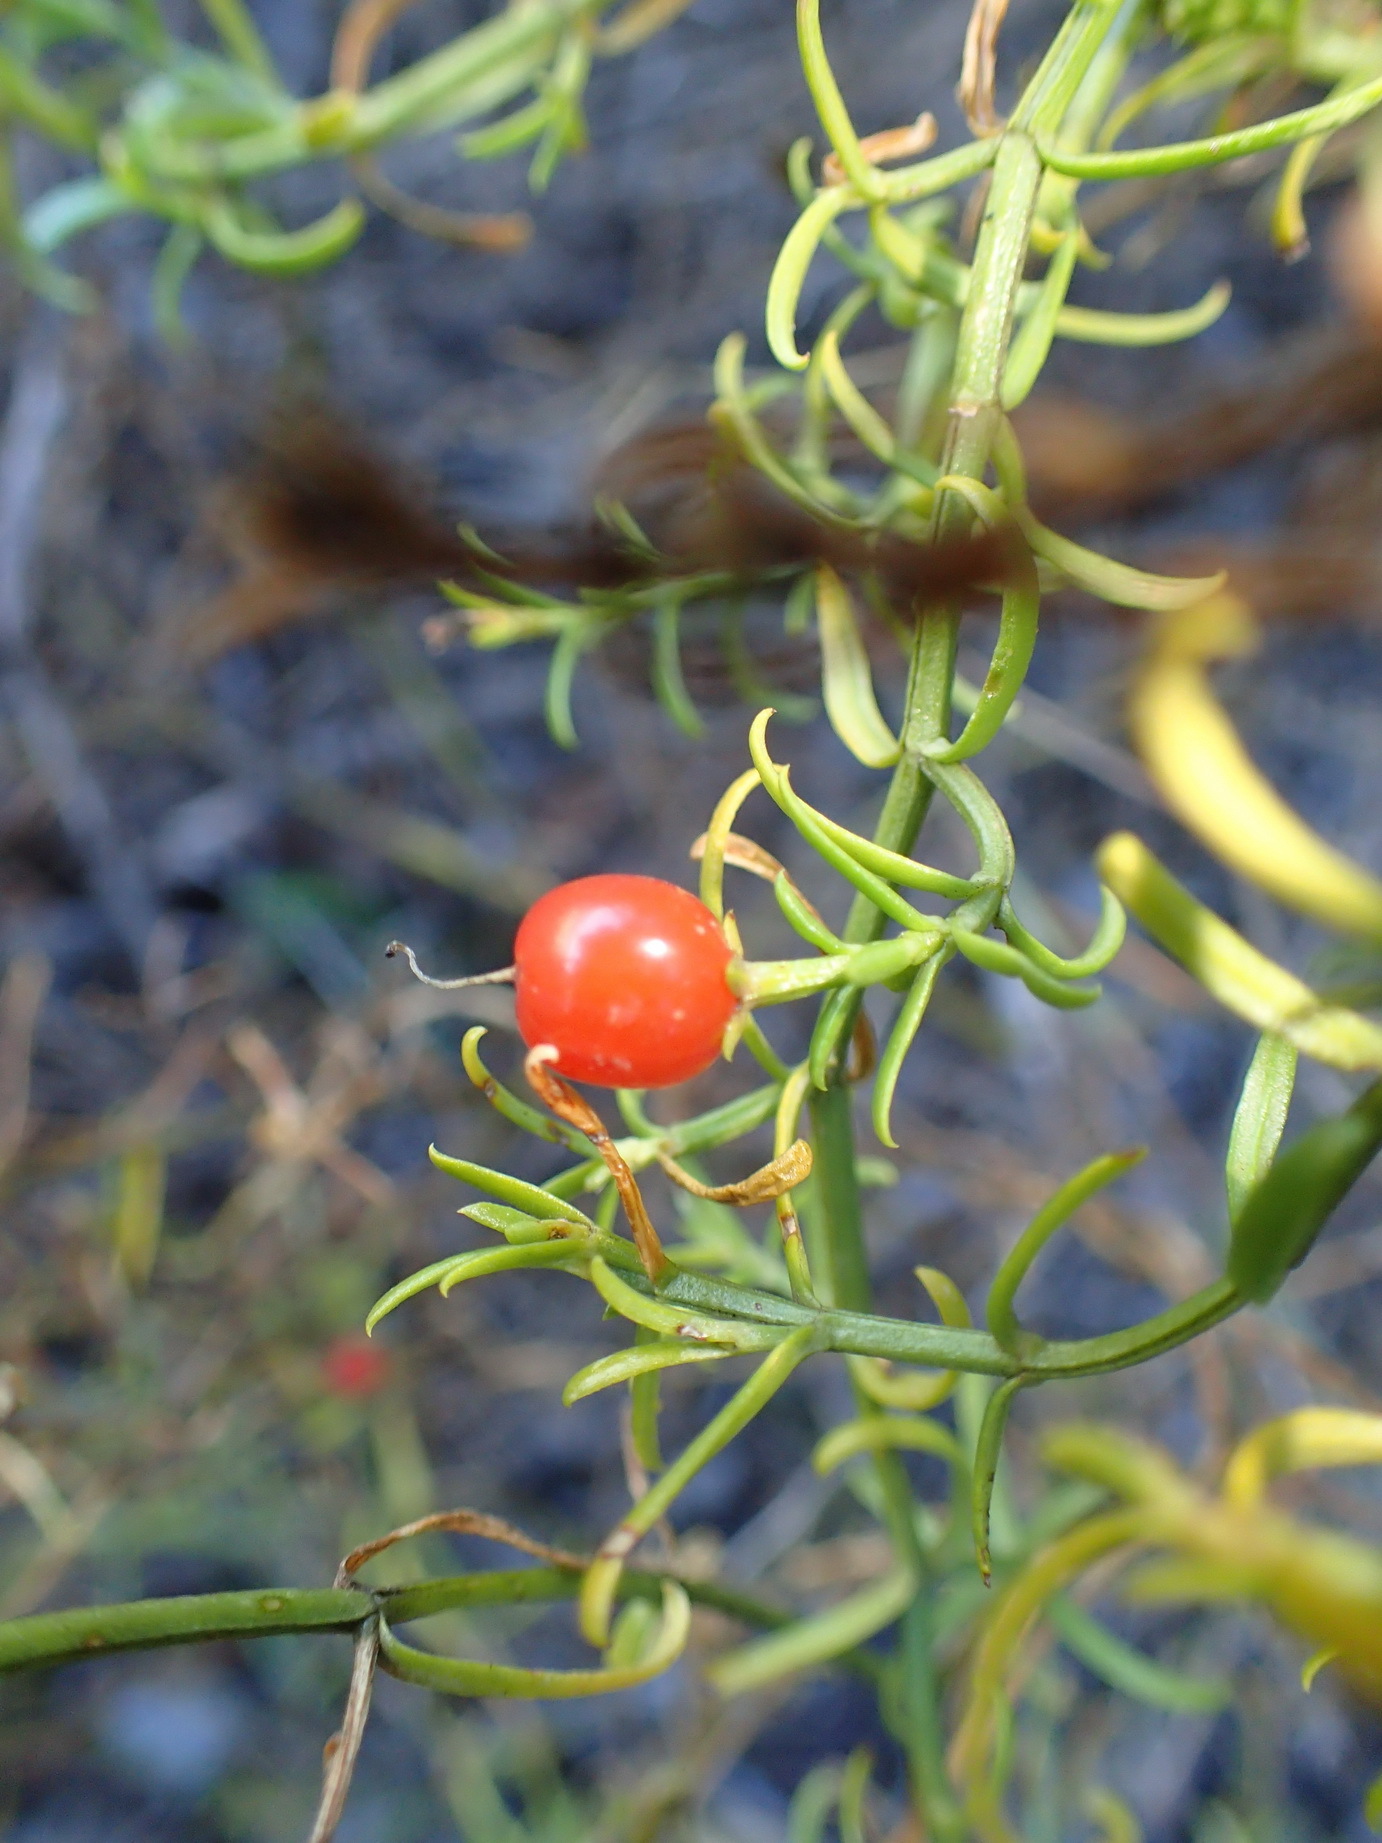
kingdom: Plantae
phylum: Tracheophyta
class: Magnoliopsida
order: Gentianales
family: Gentianaceae
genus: Chironia
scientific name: Chironia baccifera
